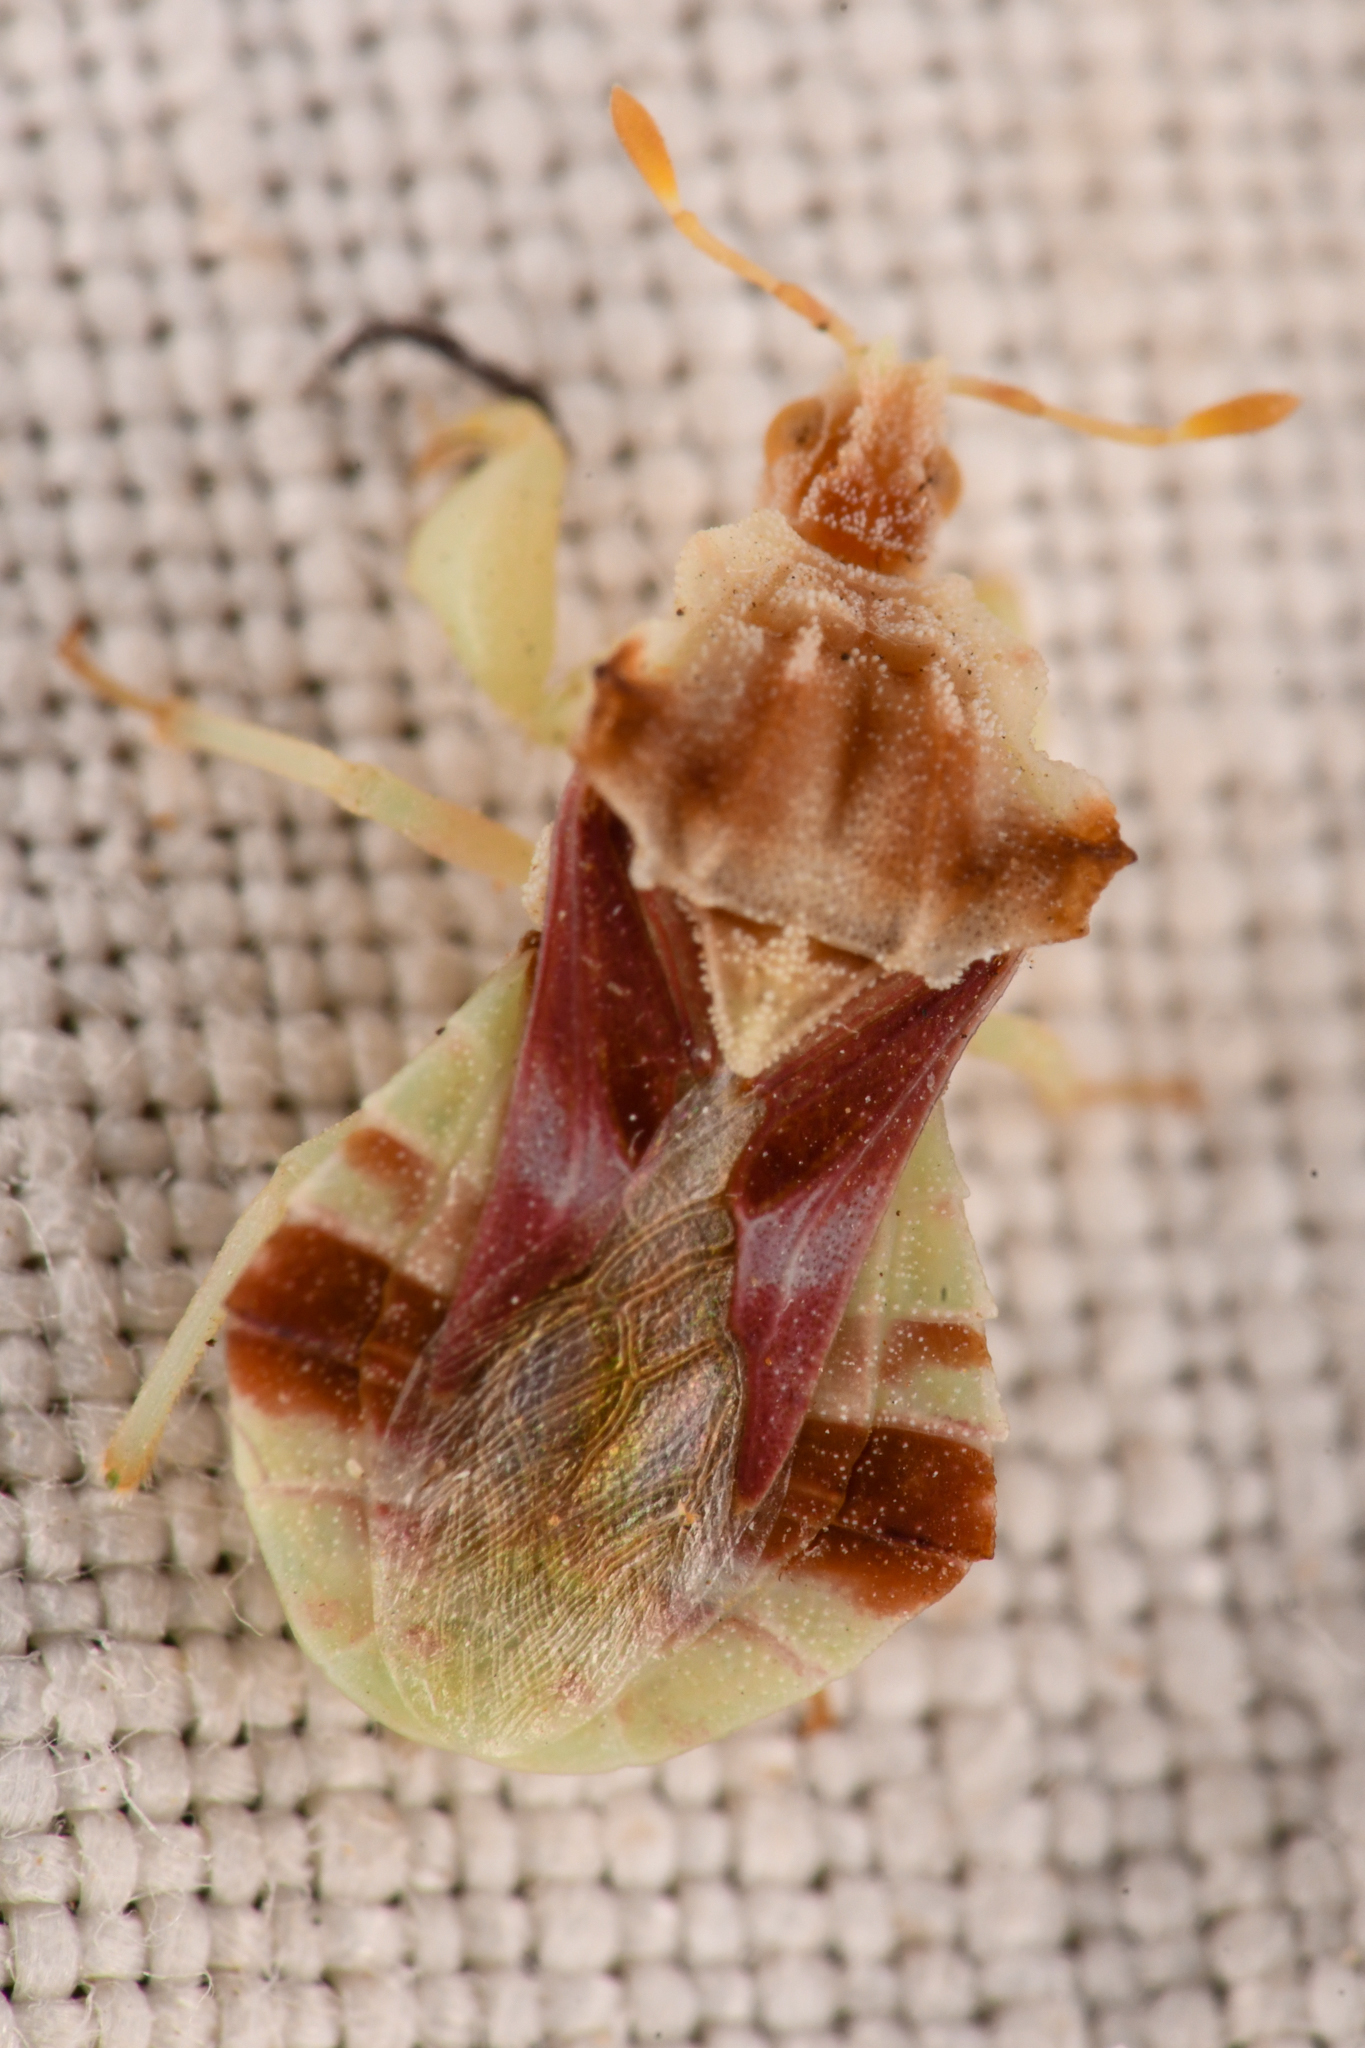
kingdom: Animalia
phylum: Arthropoda
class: Insecta
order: Hemiptera
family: Reduviidae
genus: Phymata
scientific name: Phymata pacifica
